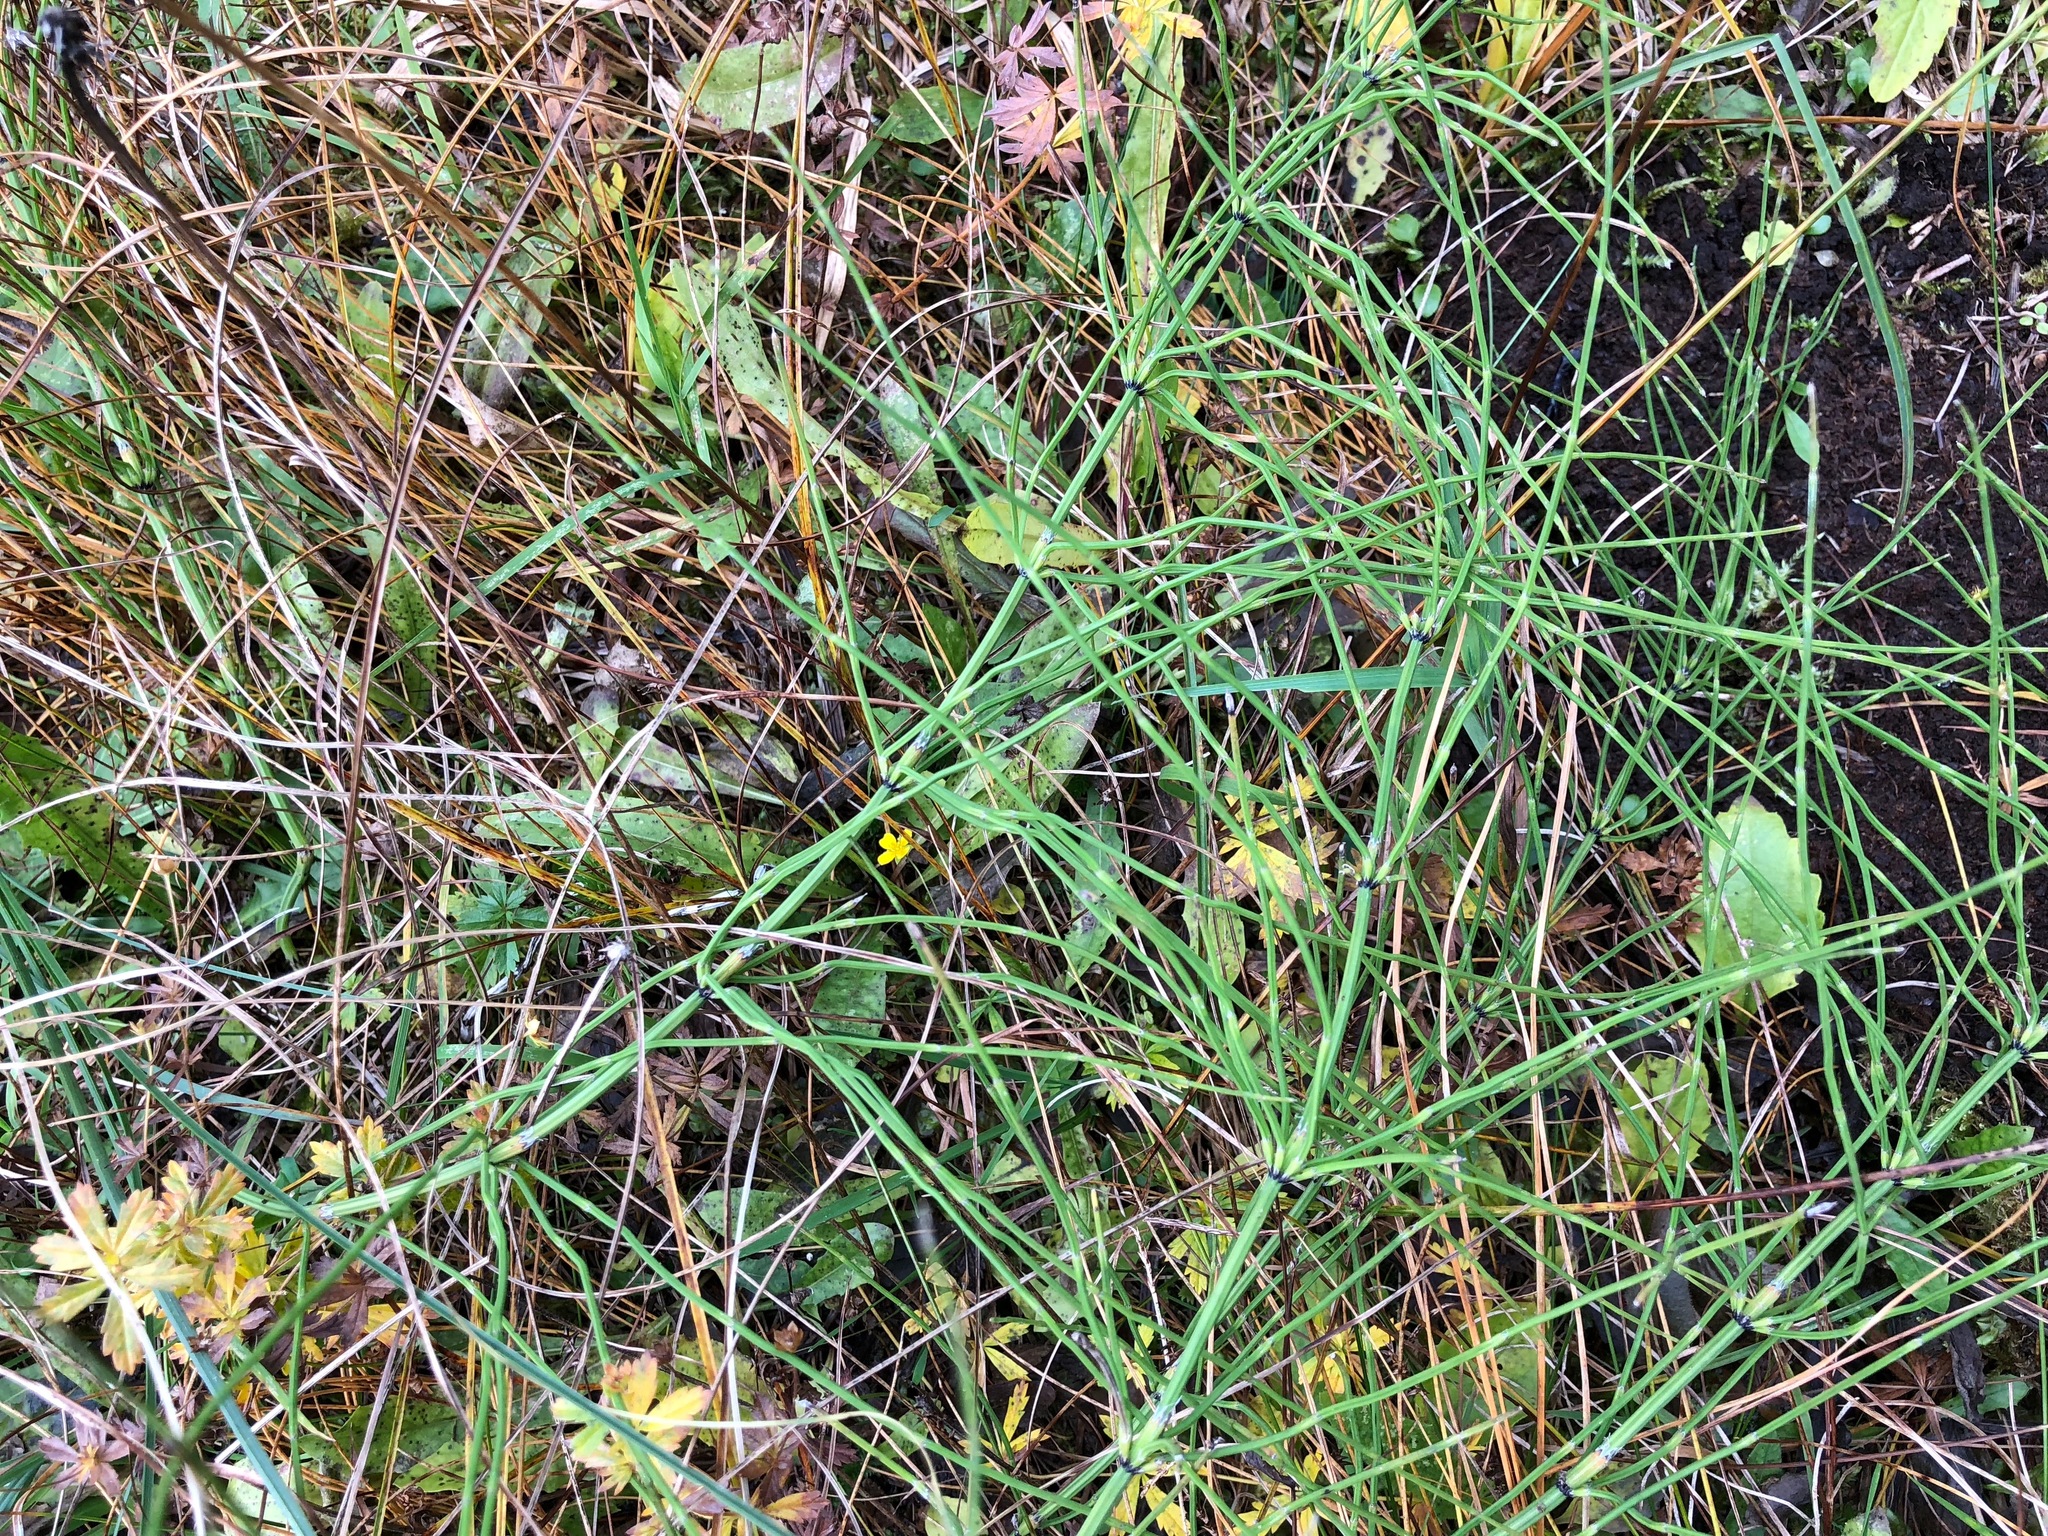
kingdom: Plantae
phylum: Tracheophyta
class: Polypodiopsida
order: Equisetales
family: Equisetaceae
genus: Equisetum
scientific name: Equisetum arvense
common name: Field horsetail
